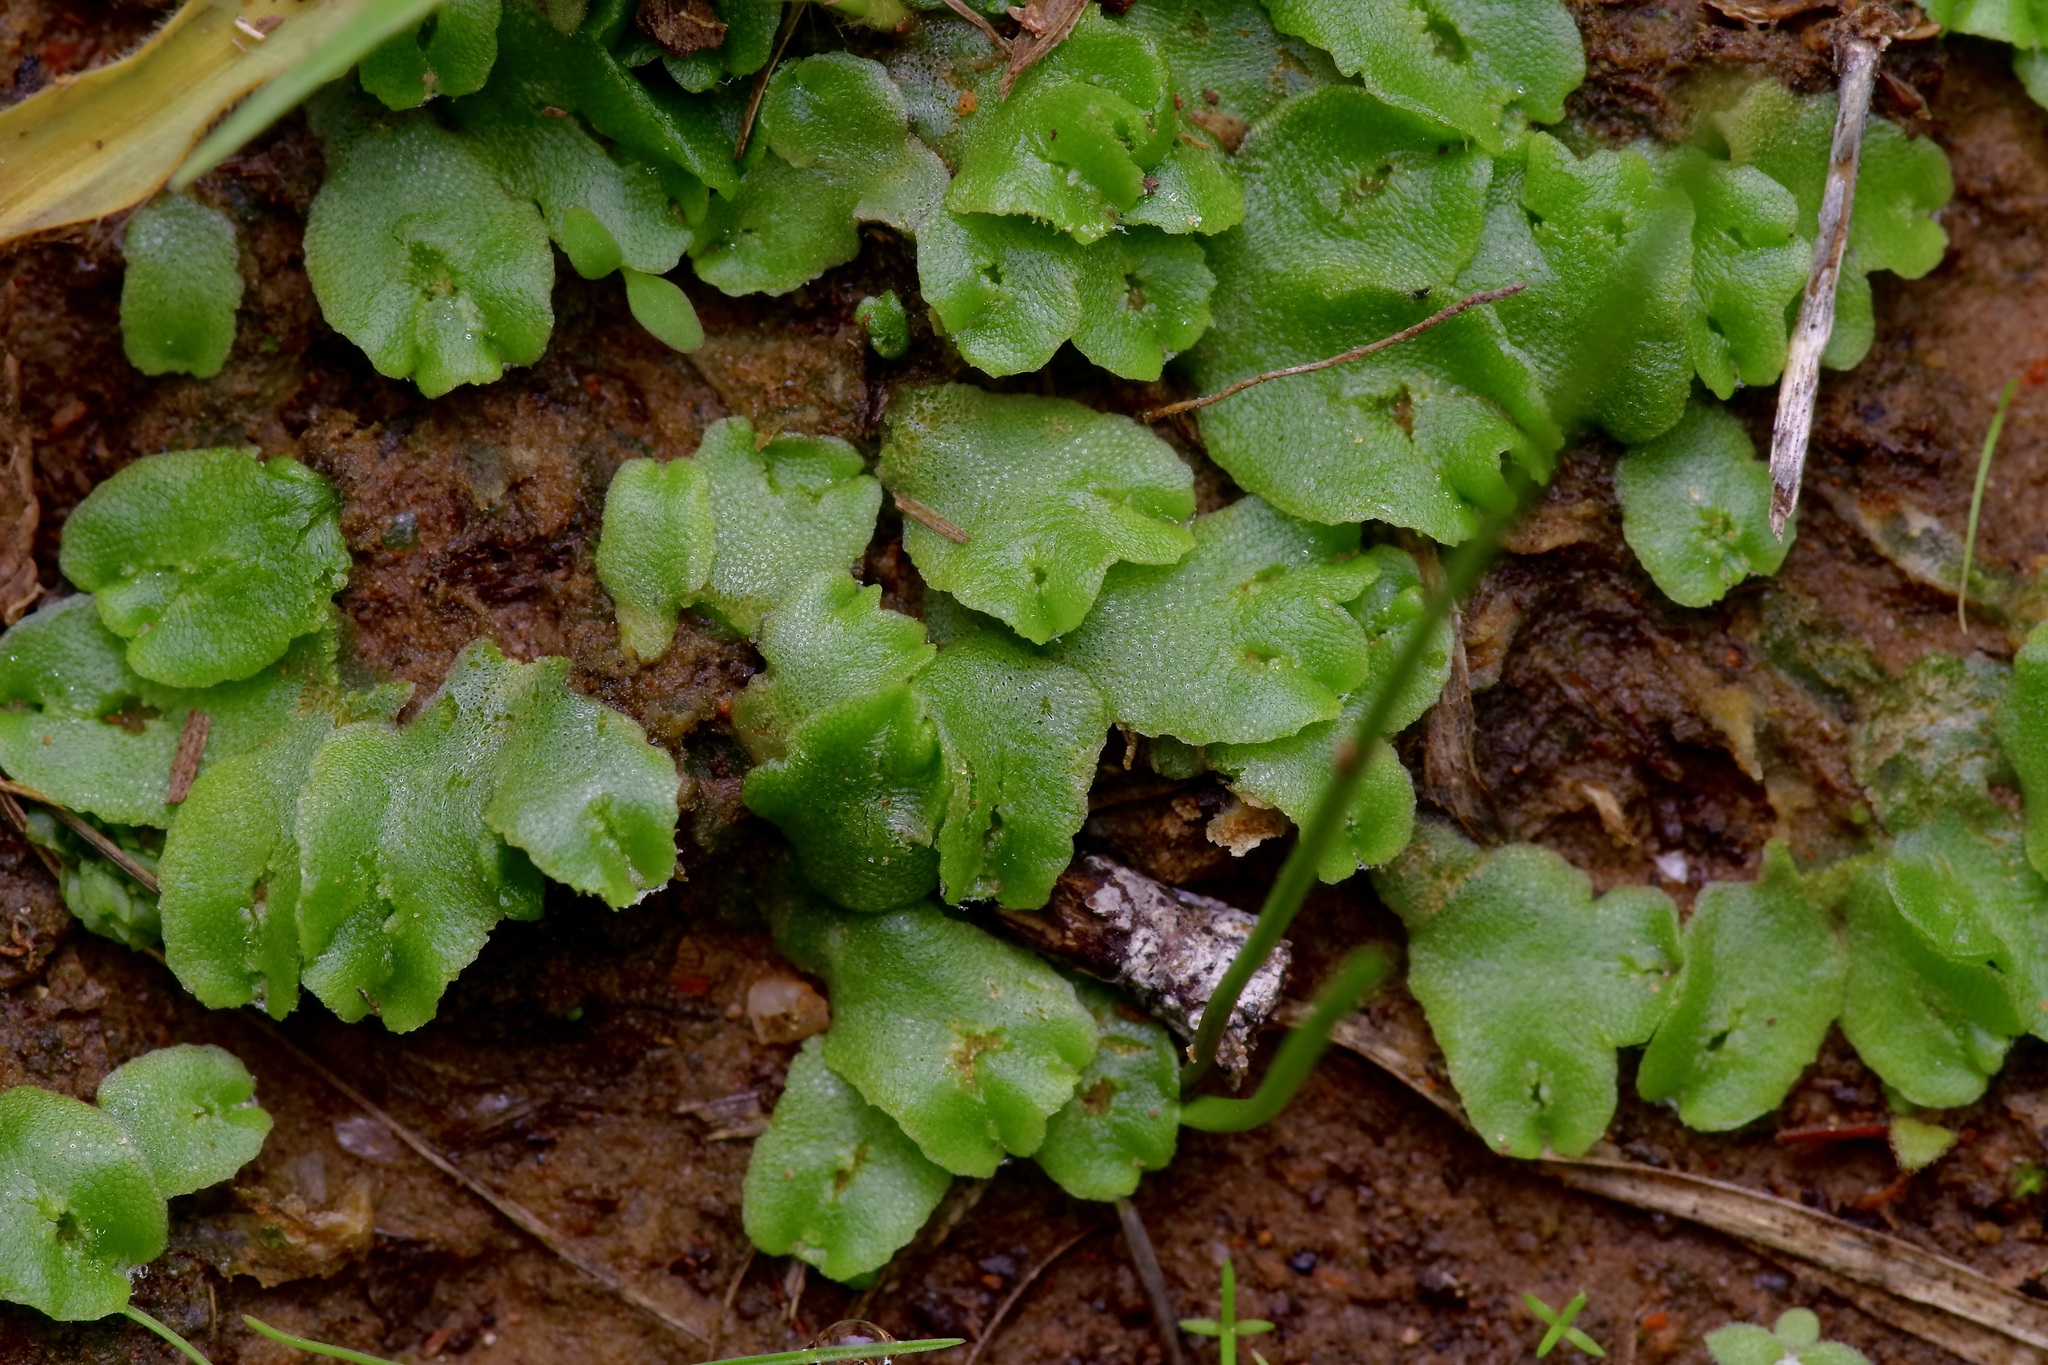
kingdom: Plantae
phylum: Marchantiophyta
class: Marchantiopsida
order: Marchantiales
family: Corsiniaceae
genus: Corsinia
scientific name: Corsinia coriandrina
